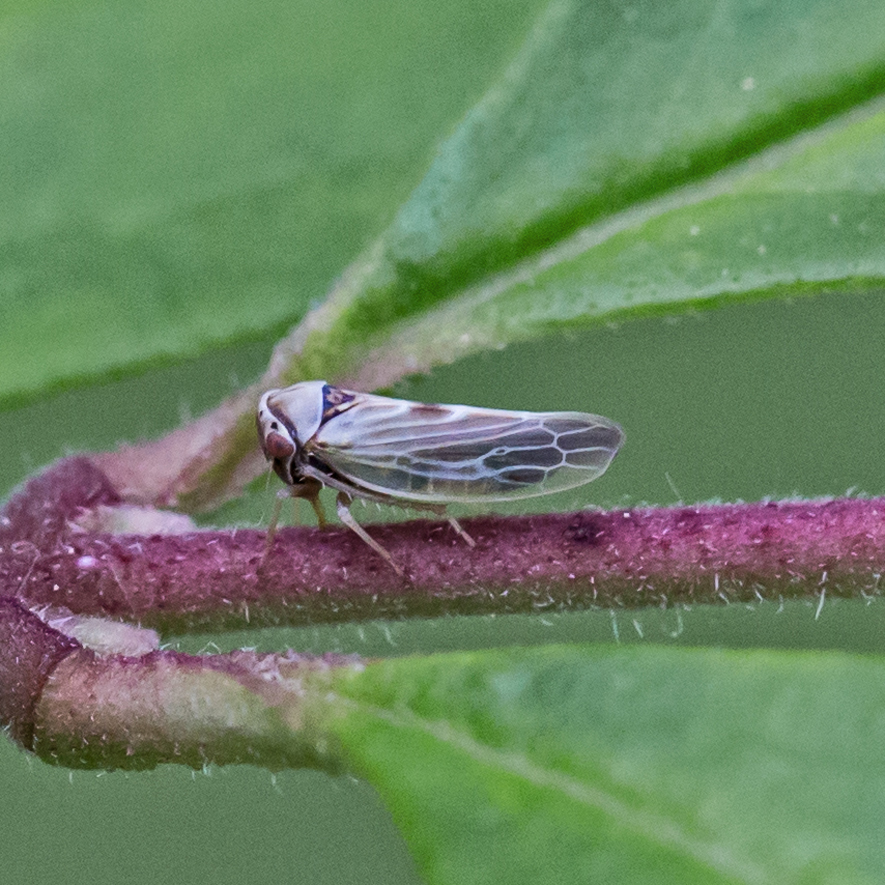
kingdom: Animalia
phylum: Arthropoda
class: Insecta
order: Hemiptera
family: Cicadellidae
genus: Agalliopsis
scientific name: Agalliopsis ancistra
